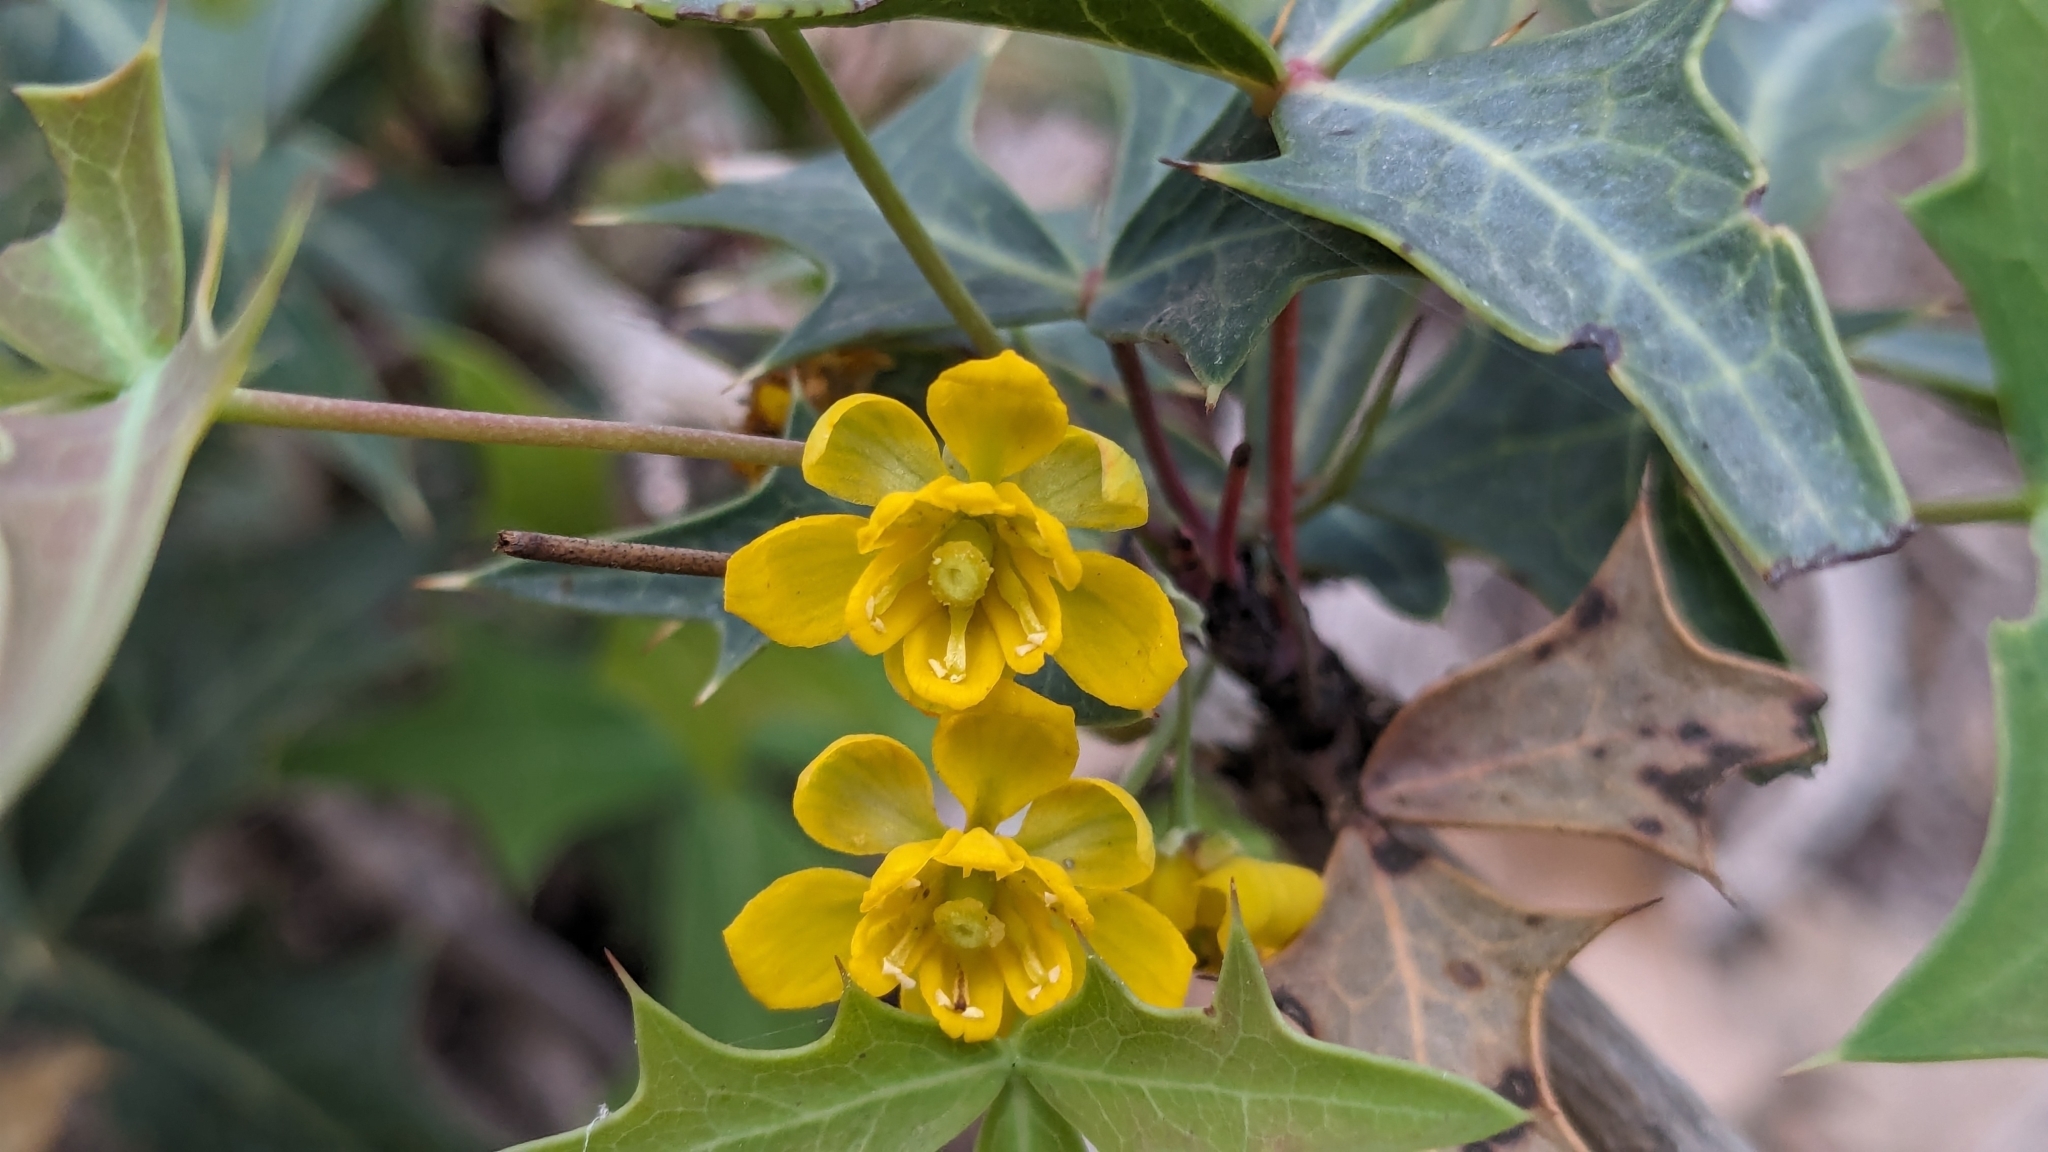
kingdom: Plantae
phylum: Tracheophyta
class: Magnoliopsida
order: Ranunculales
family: Berberidaceae
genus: Alloberberis
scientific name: Alloberberis trifoliolata
